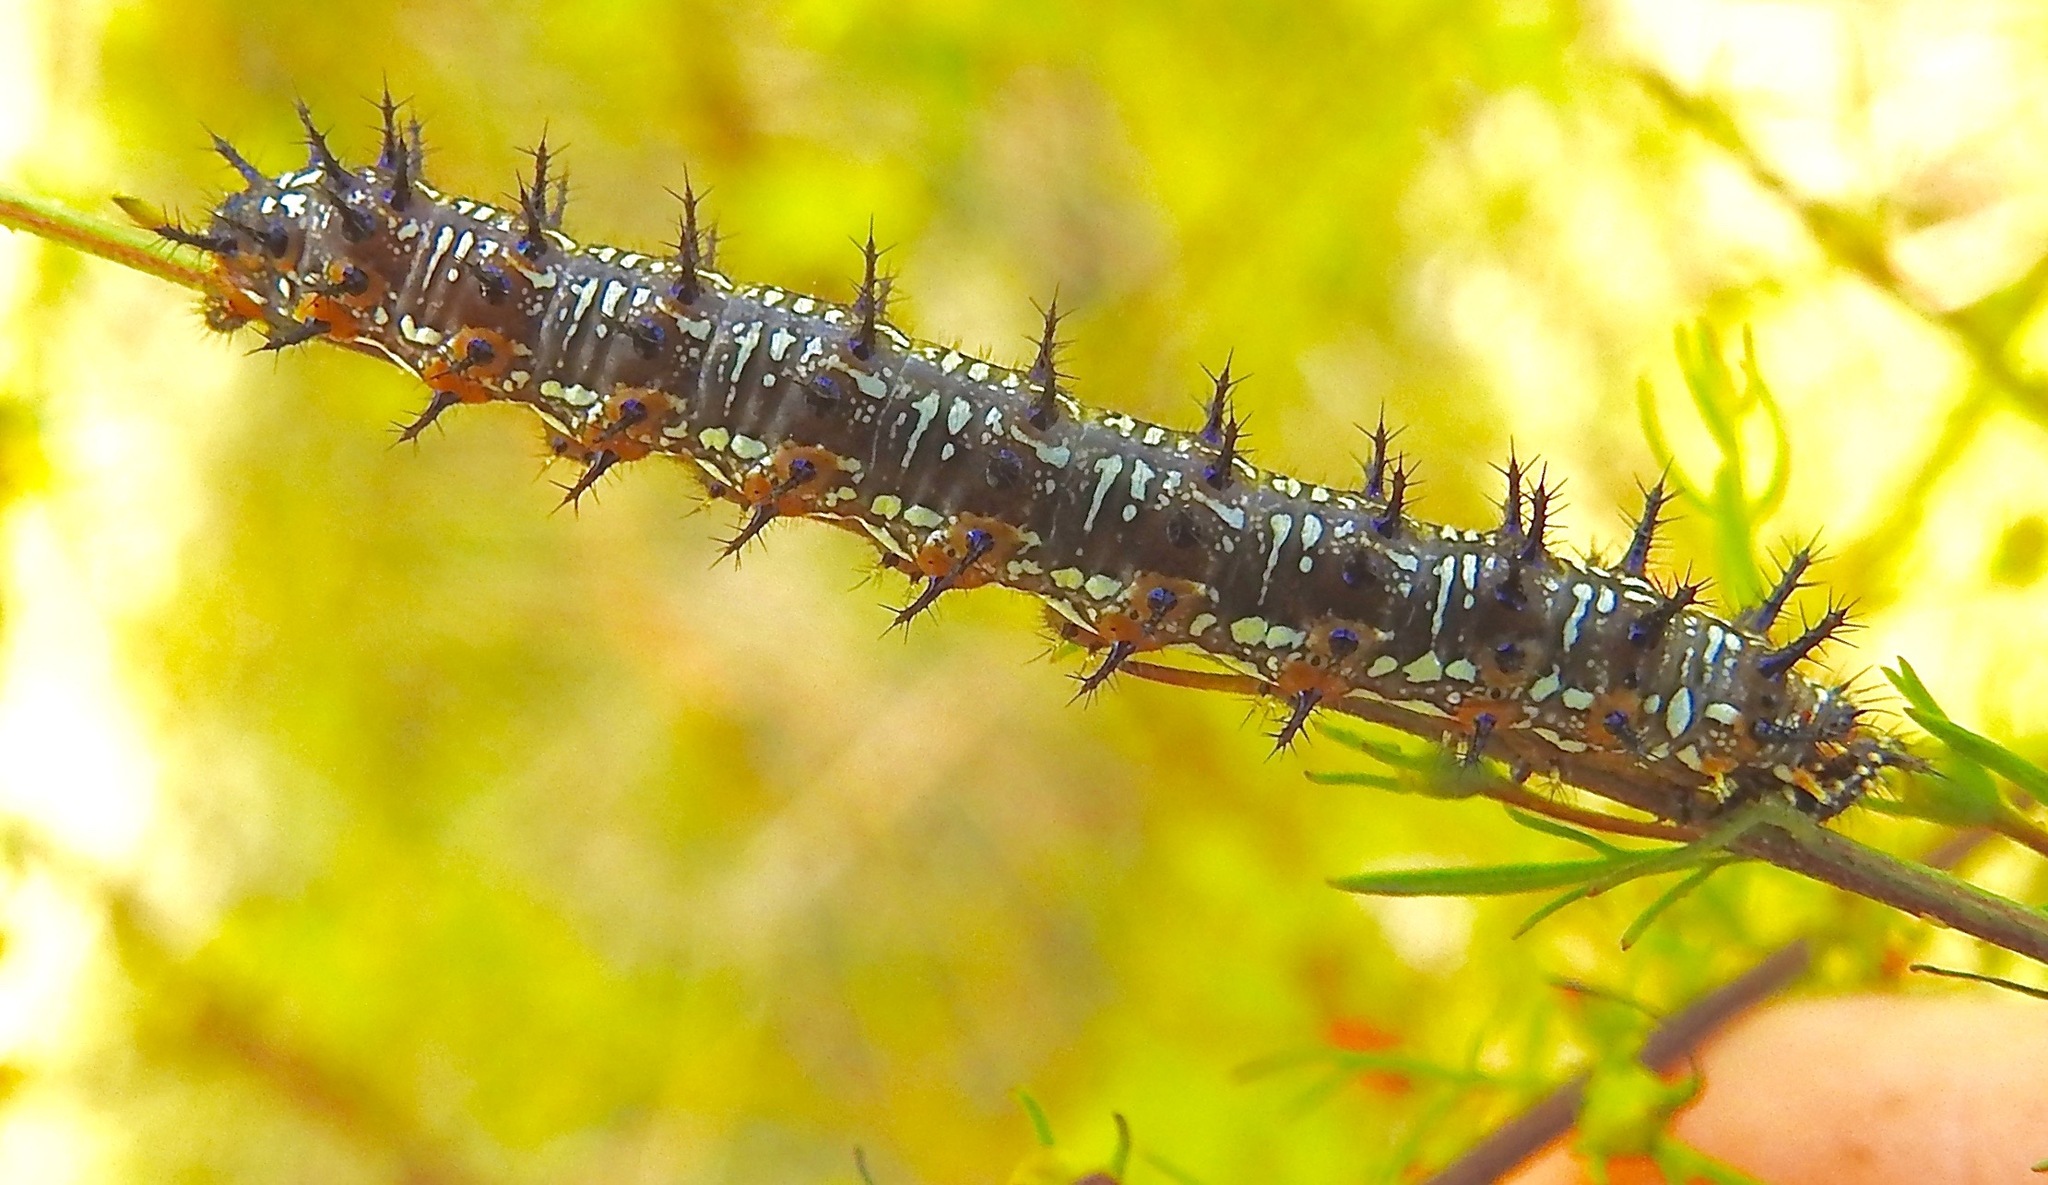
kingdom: Animalia
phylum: Arthropoda
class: Insecta
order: Lepidoptera
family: Nymphalidae
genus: Junonia
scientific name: Junonia coenia
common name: Common buckeye
